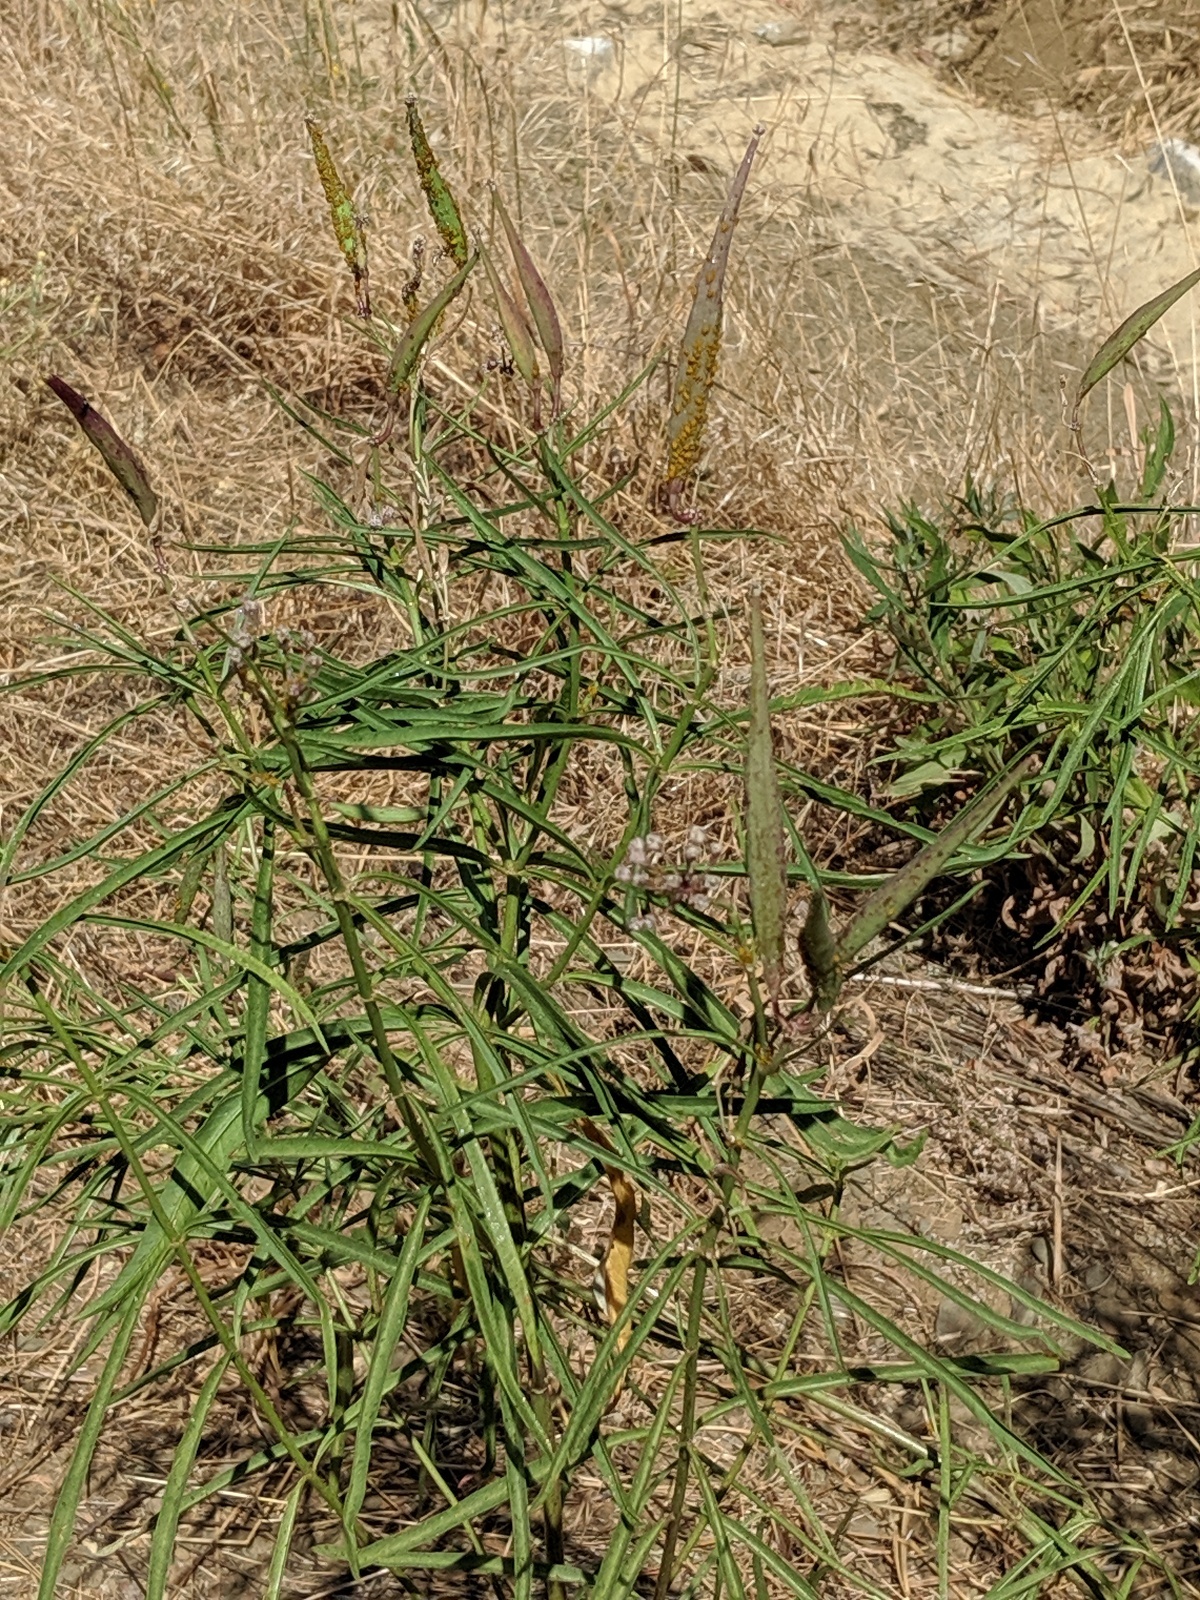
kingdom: Plantae
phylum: Tracheophyta
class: Magnoliopsida
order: Gentianales
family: Apocynaceae
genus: Asclepias
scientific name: Asclepias fascicularis
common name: Mexican milkweed
